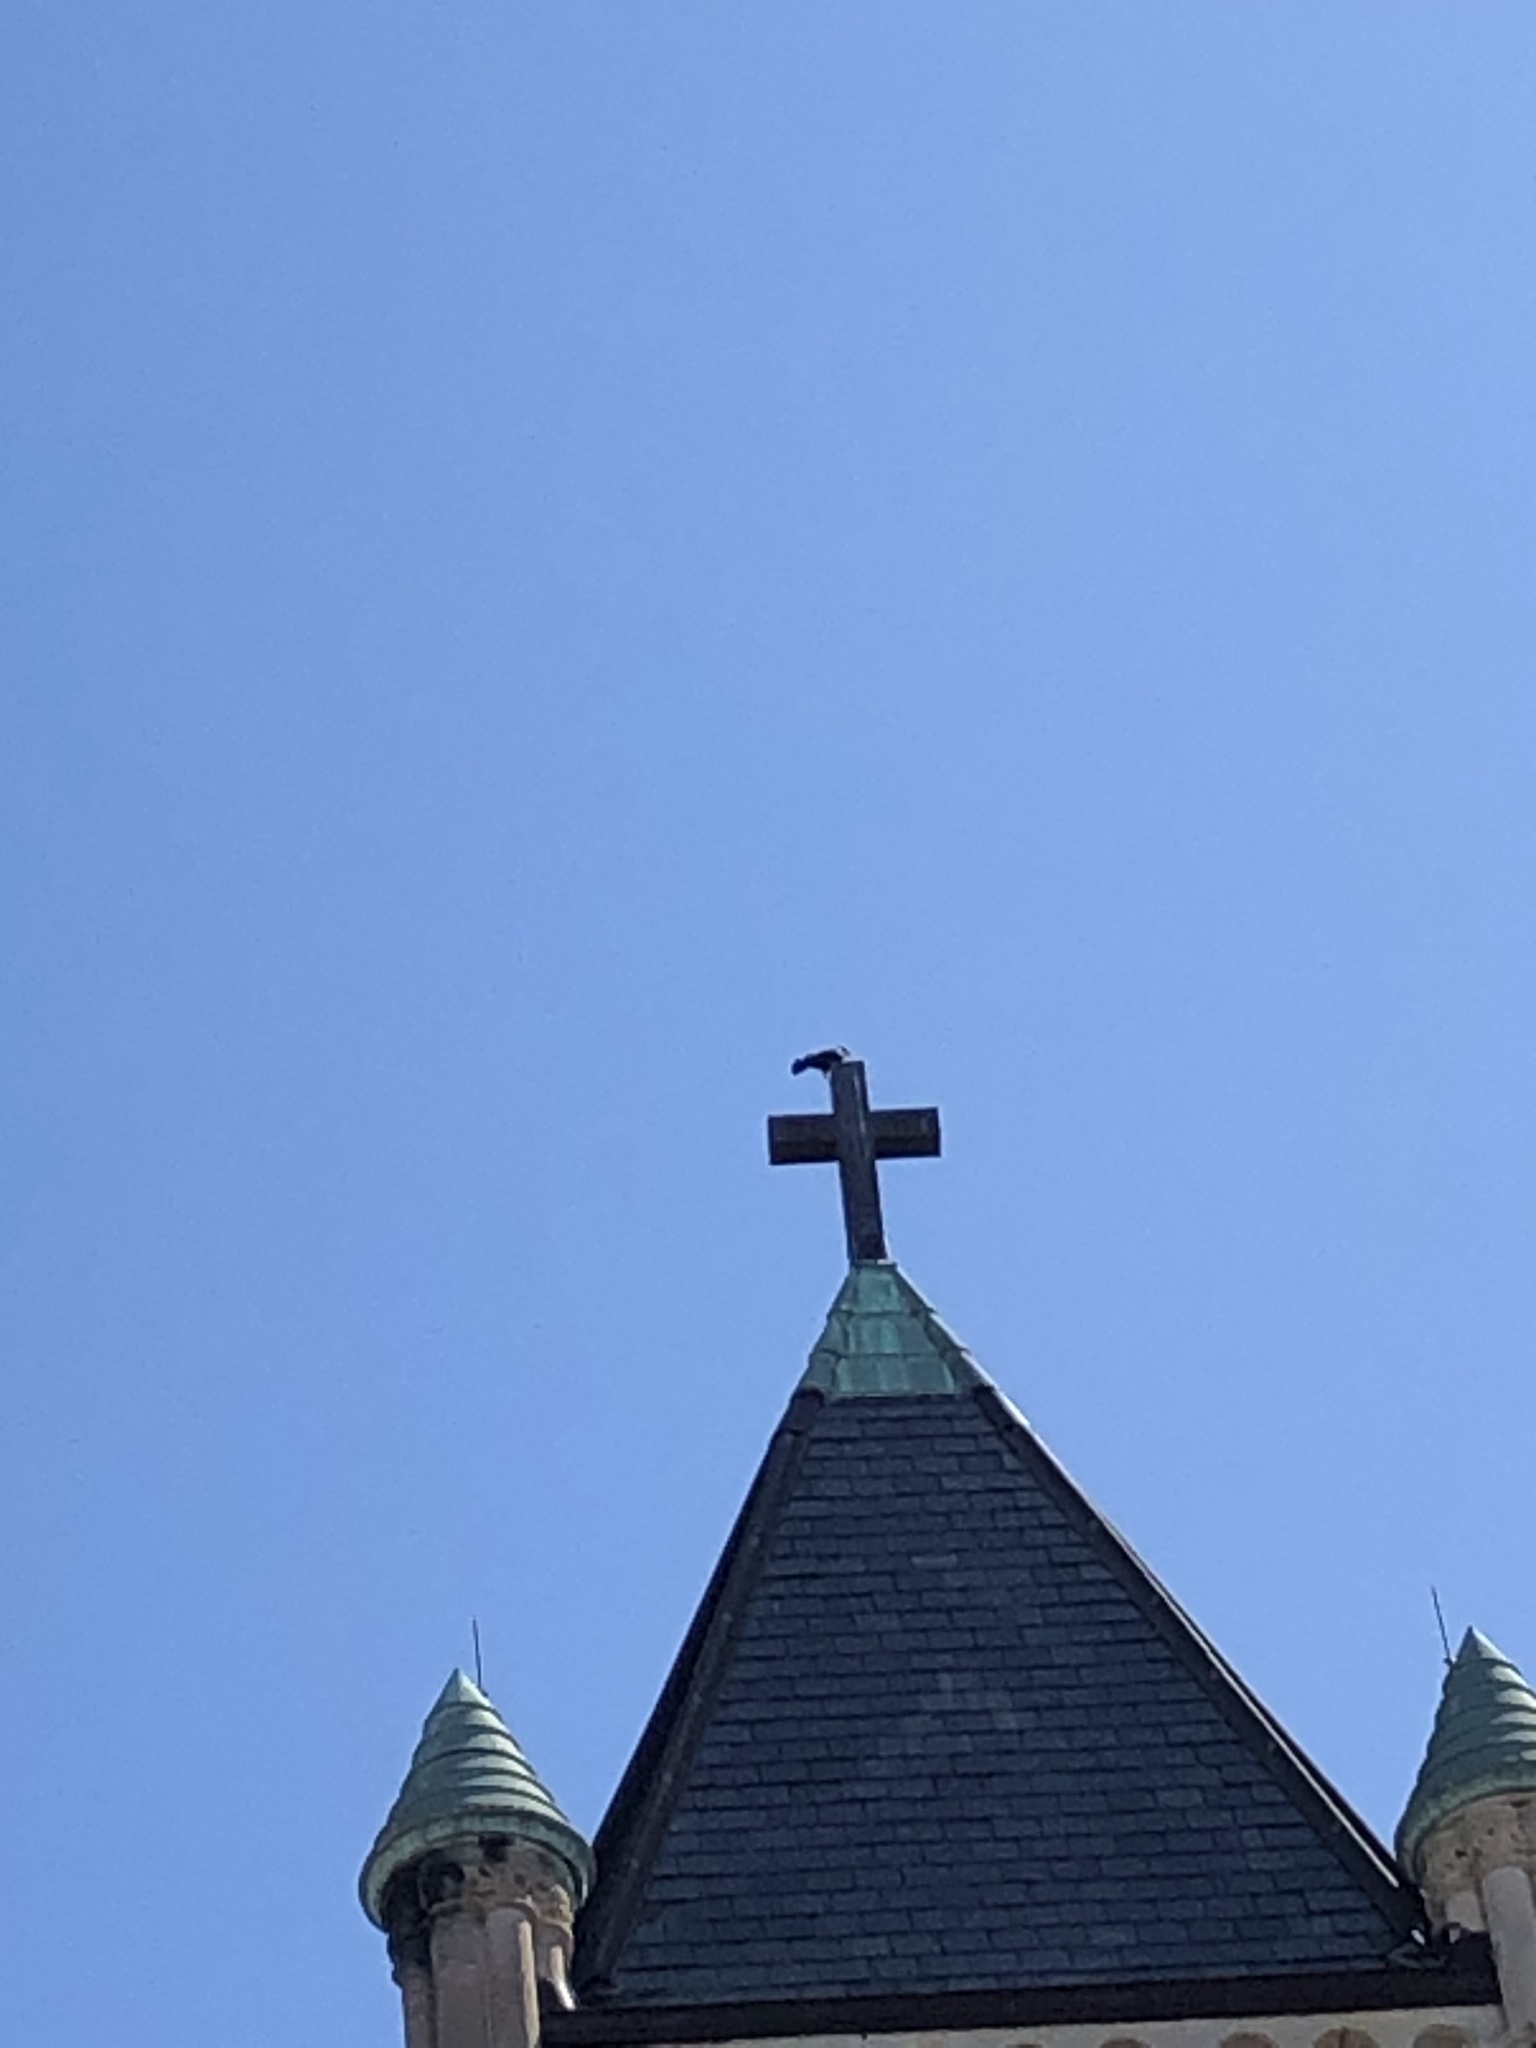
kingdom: Animalia
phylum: Chordata
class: Aves
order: Passeriformes
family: Corvidae
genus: Corvus
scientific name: Corvus brachyrhynchos
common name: American crow
